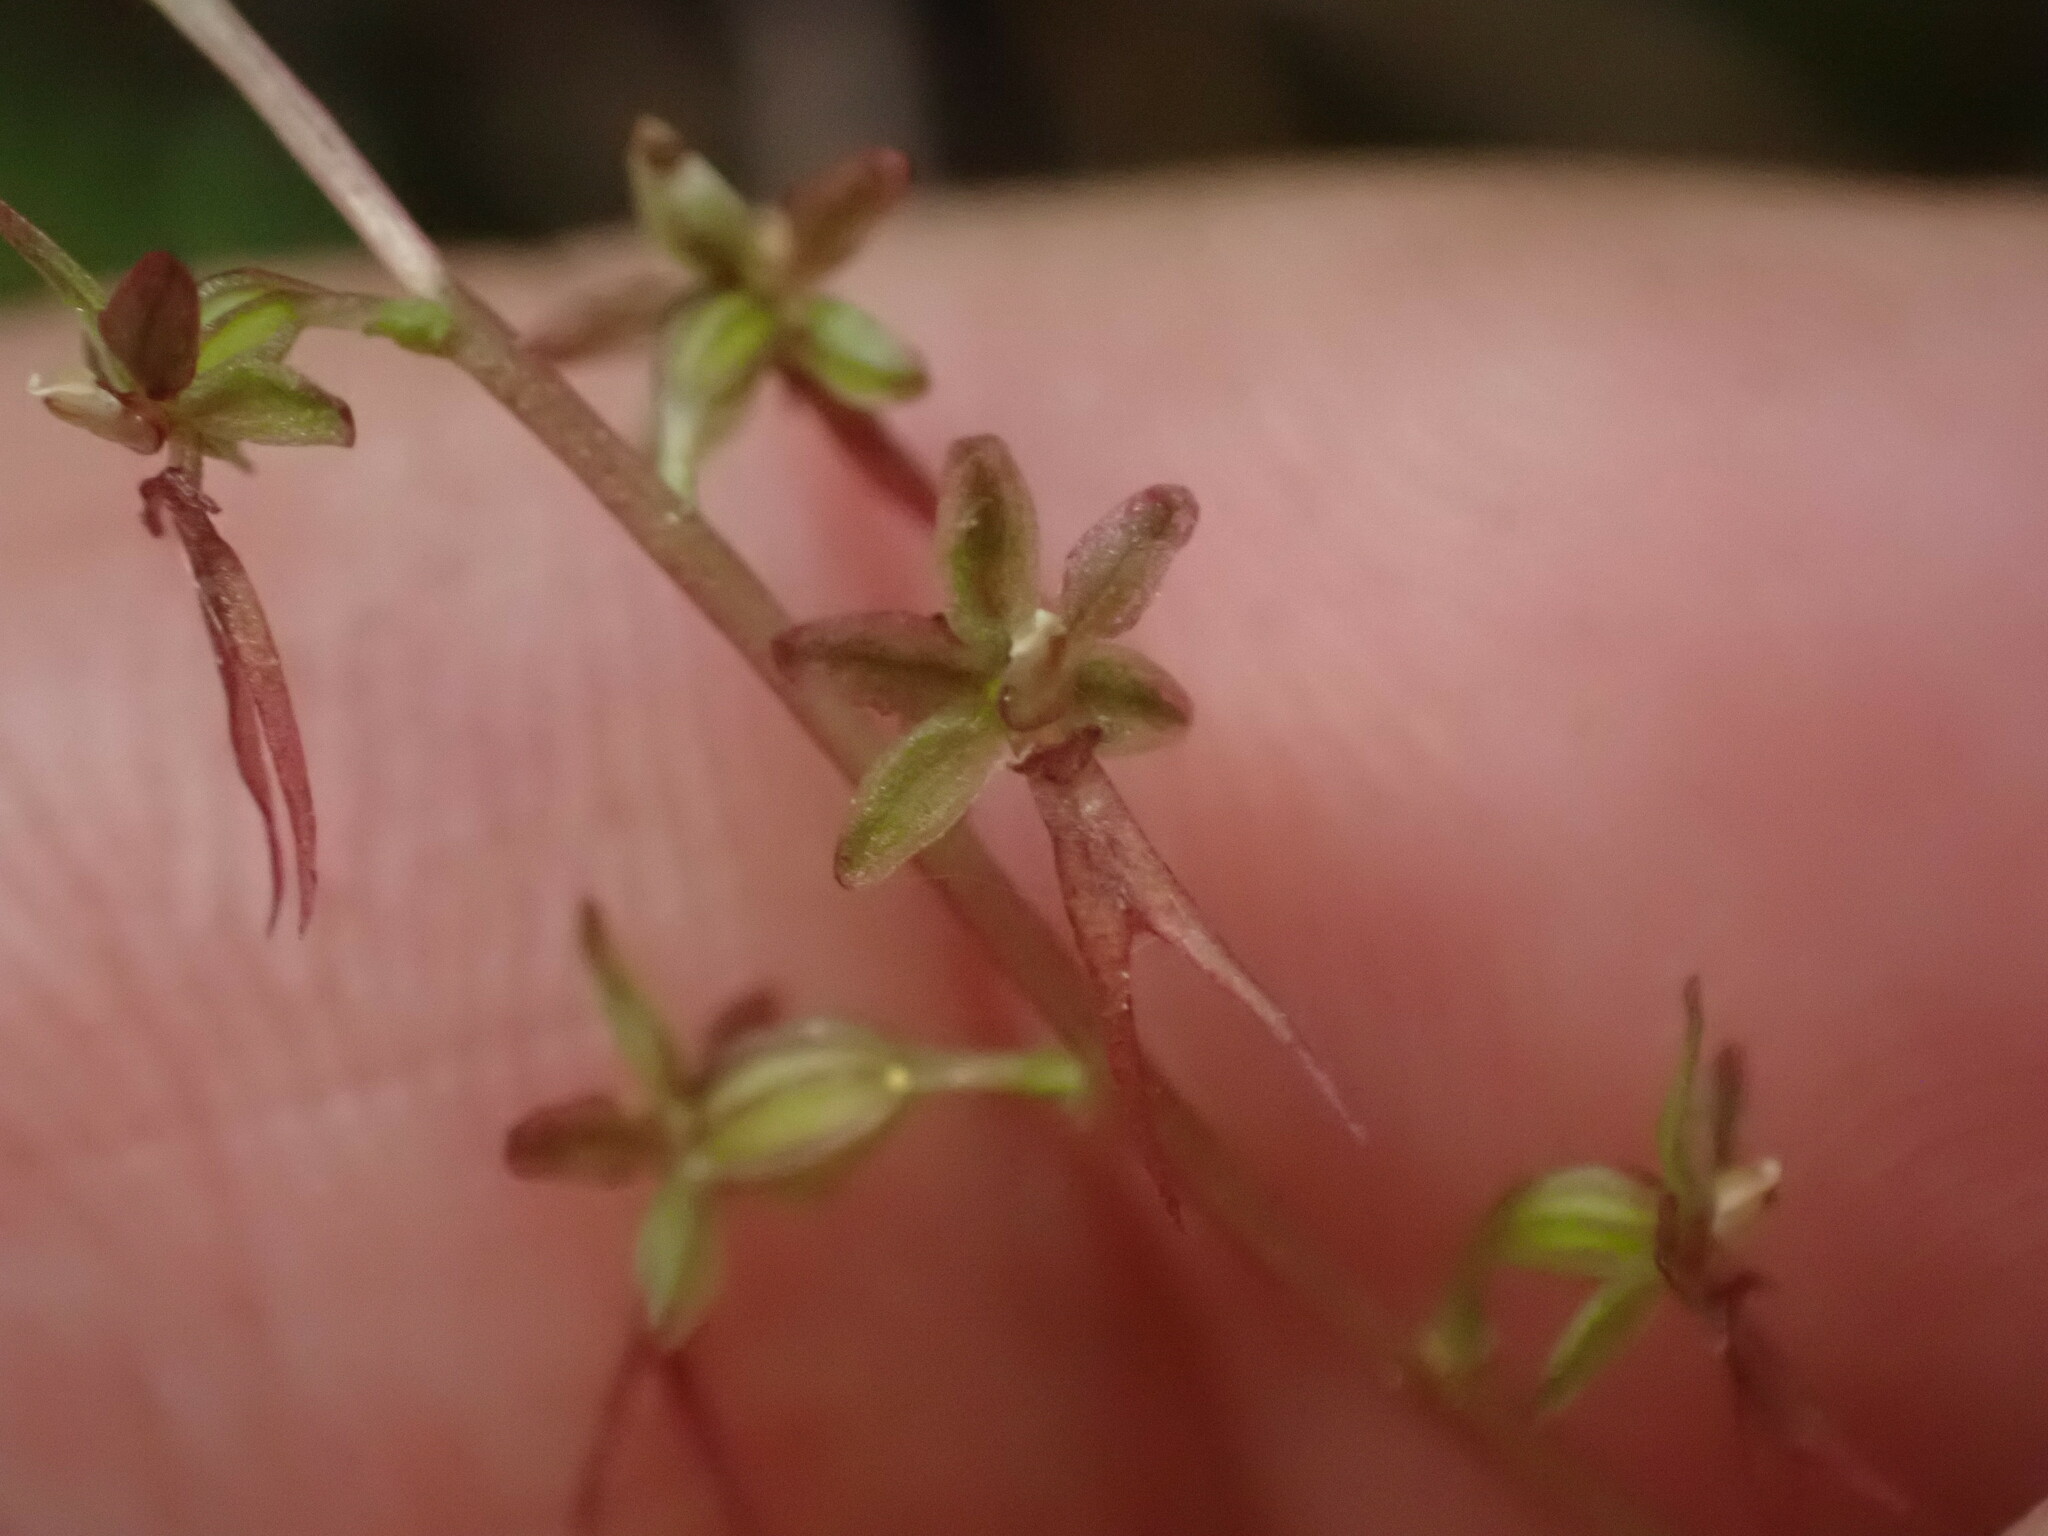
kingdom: Plantae
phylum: Tracheophyta
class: Liliopsida
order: Asparagales
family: Orchidaceae
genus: Neottia
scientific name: Neottia cordata
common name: Lesser twayblade
